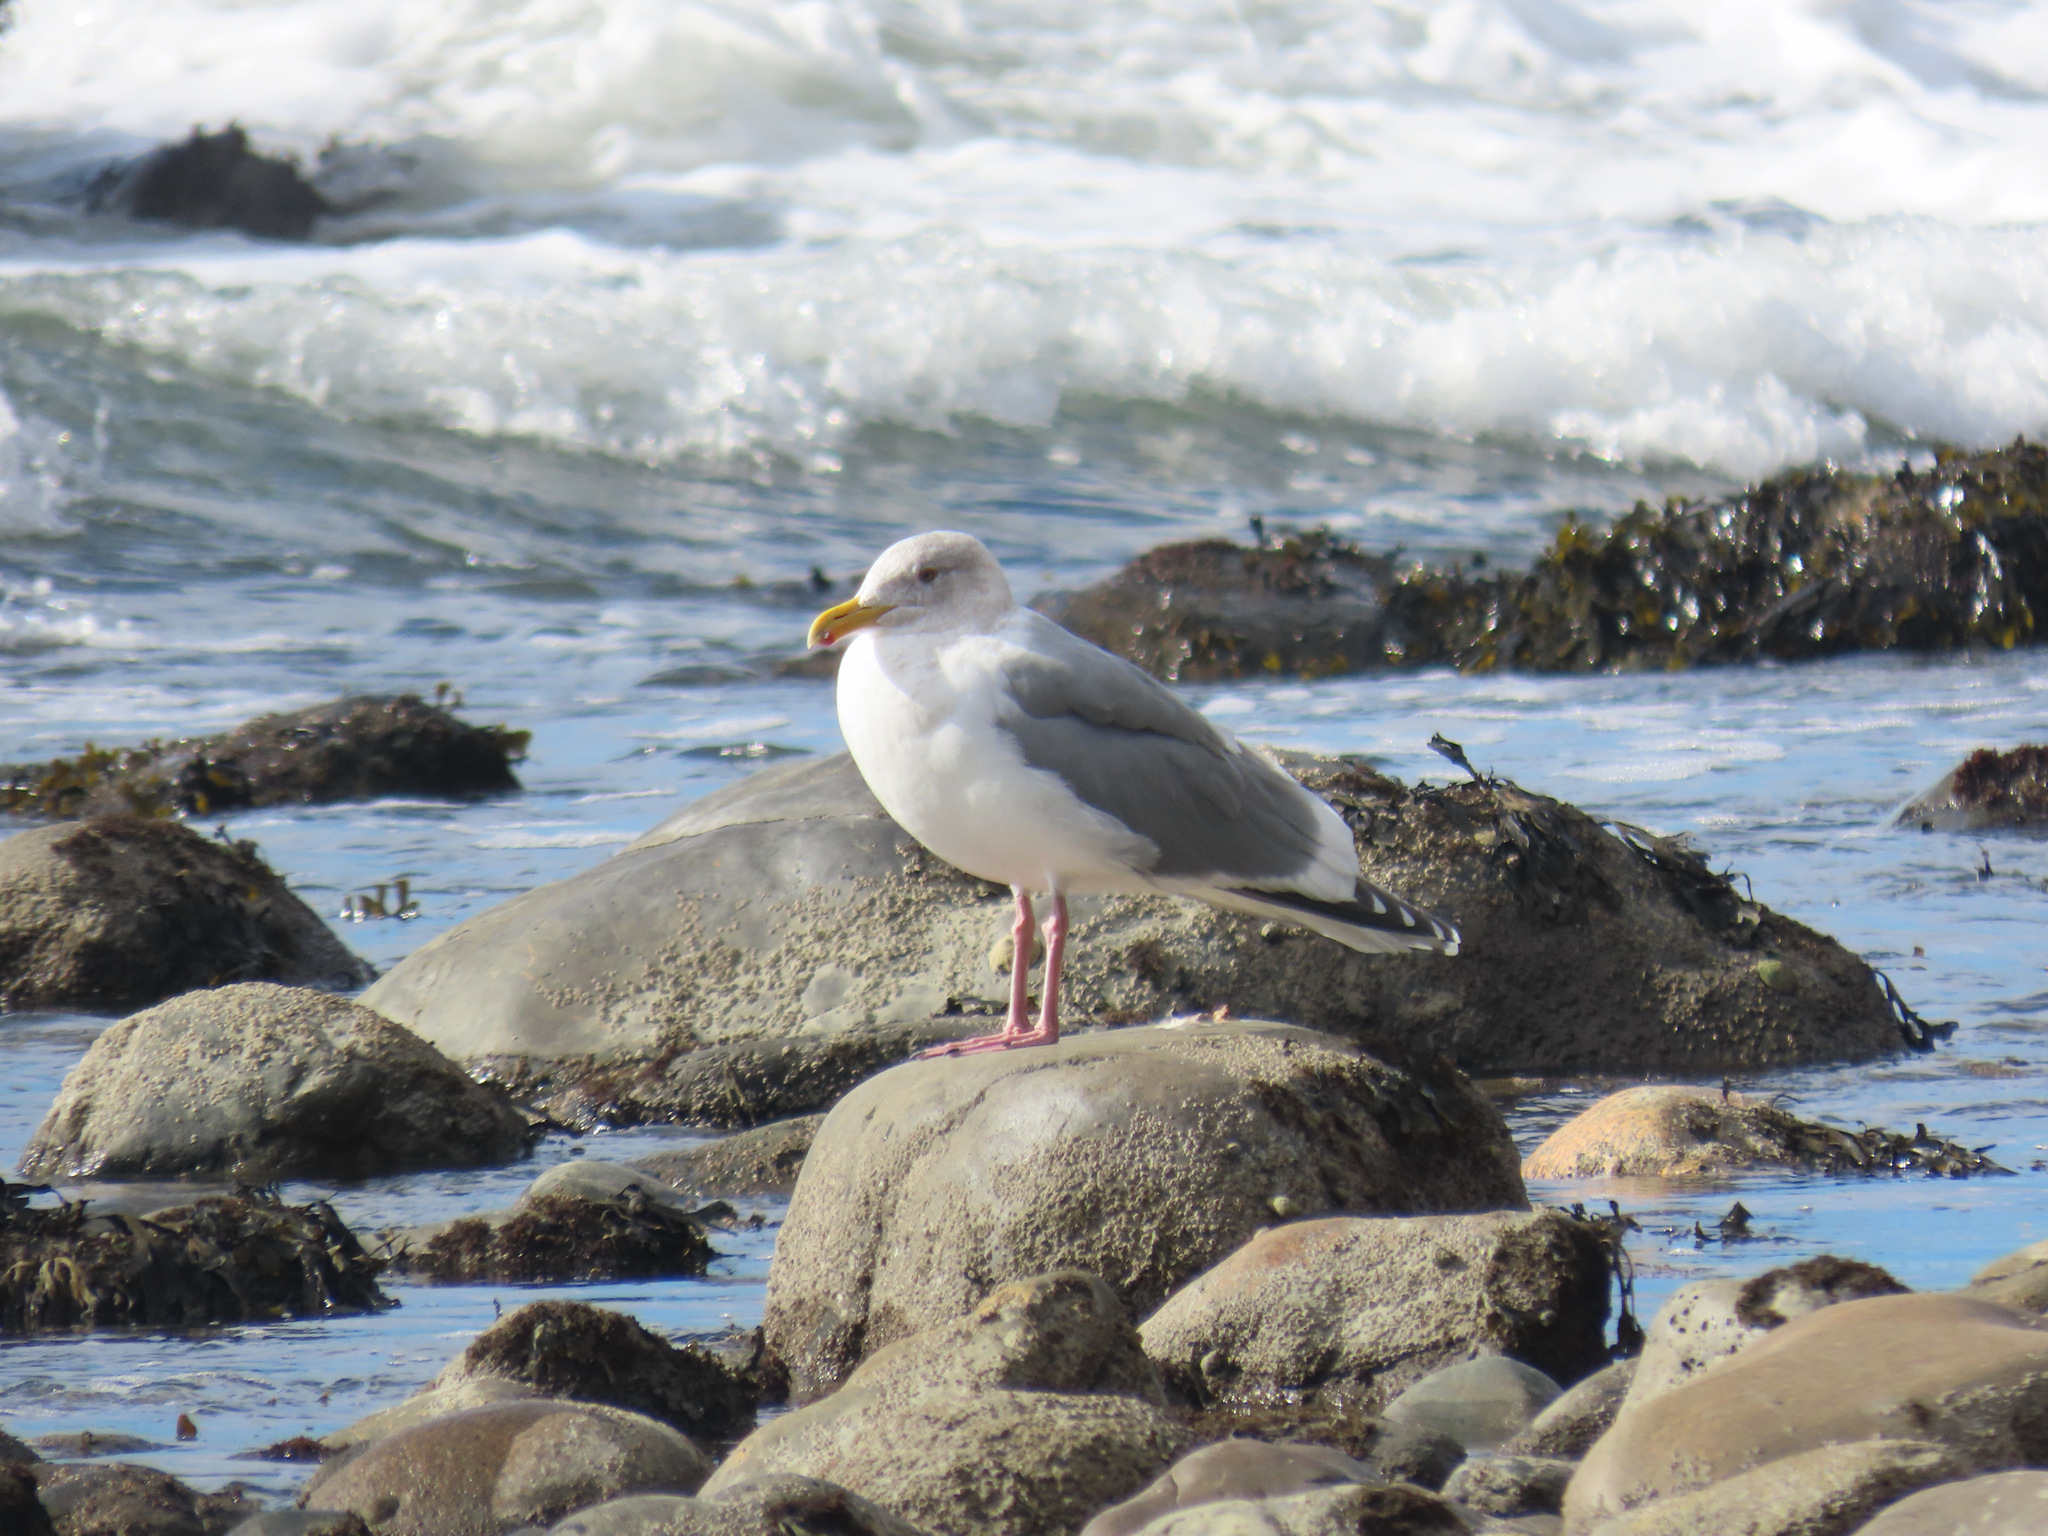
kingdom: Animalia
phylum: Chordata
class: Aves
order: Charadriiformes
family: Laridae
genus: Larus
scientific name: Larus
